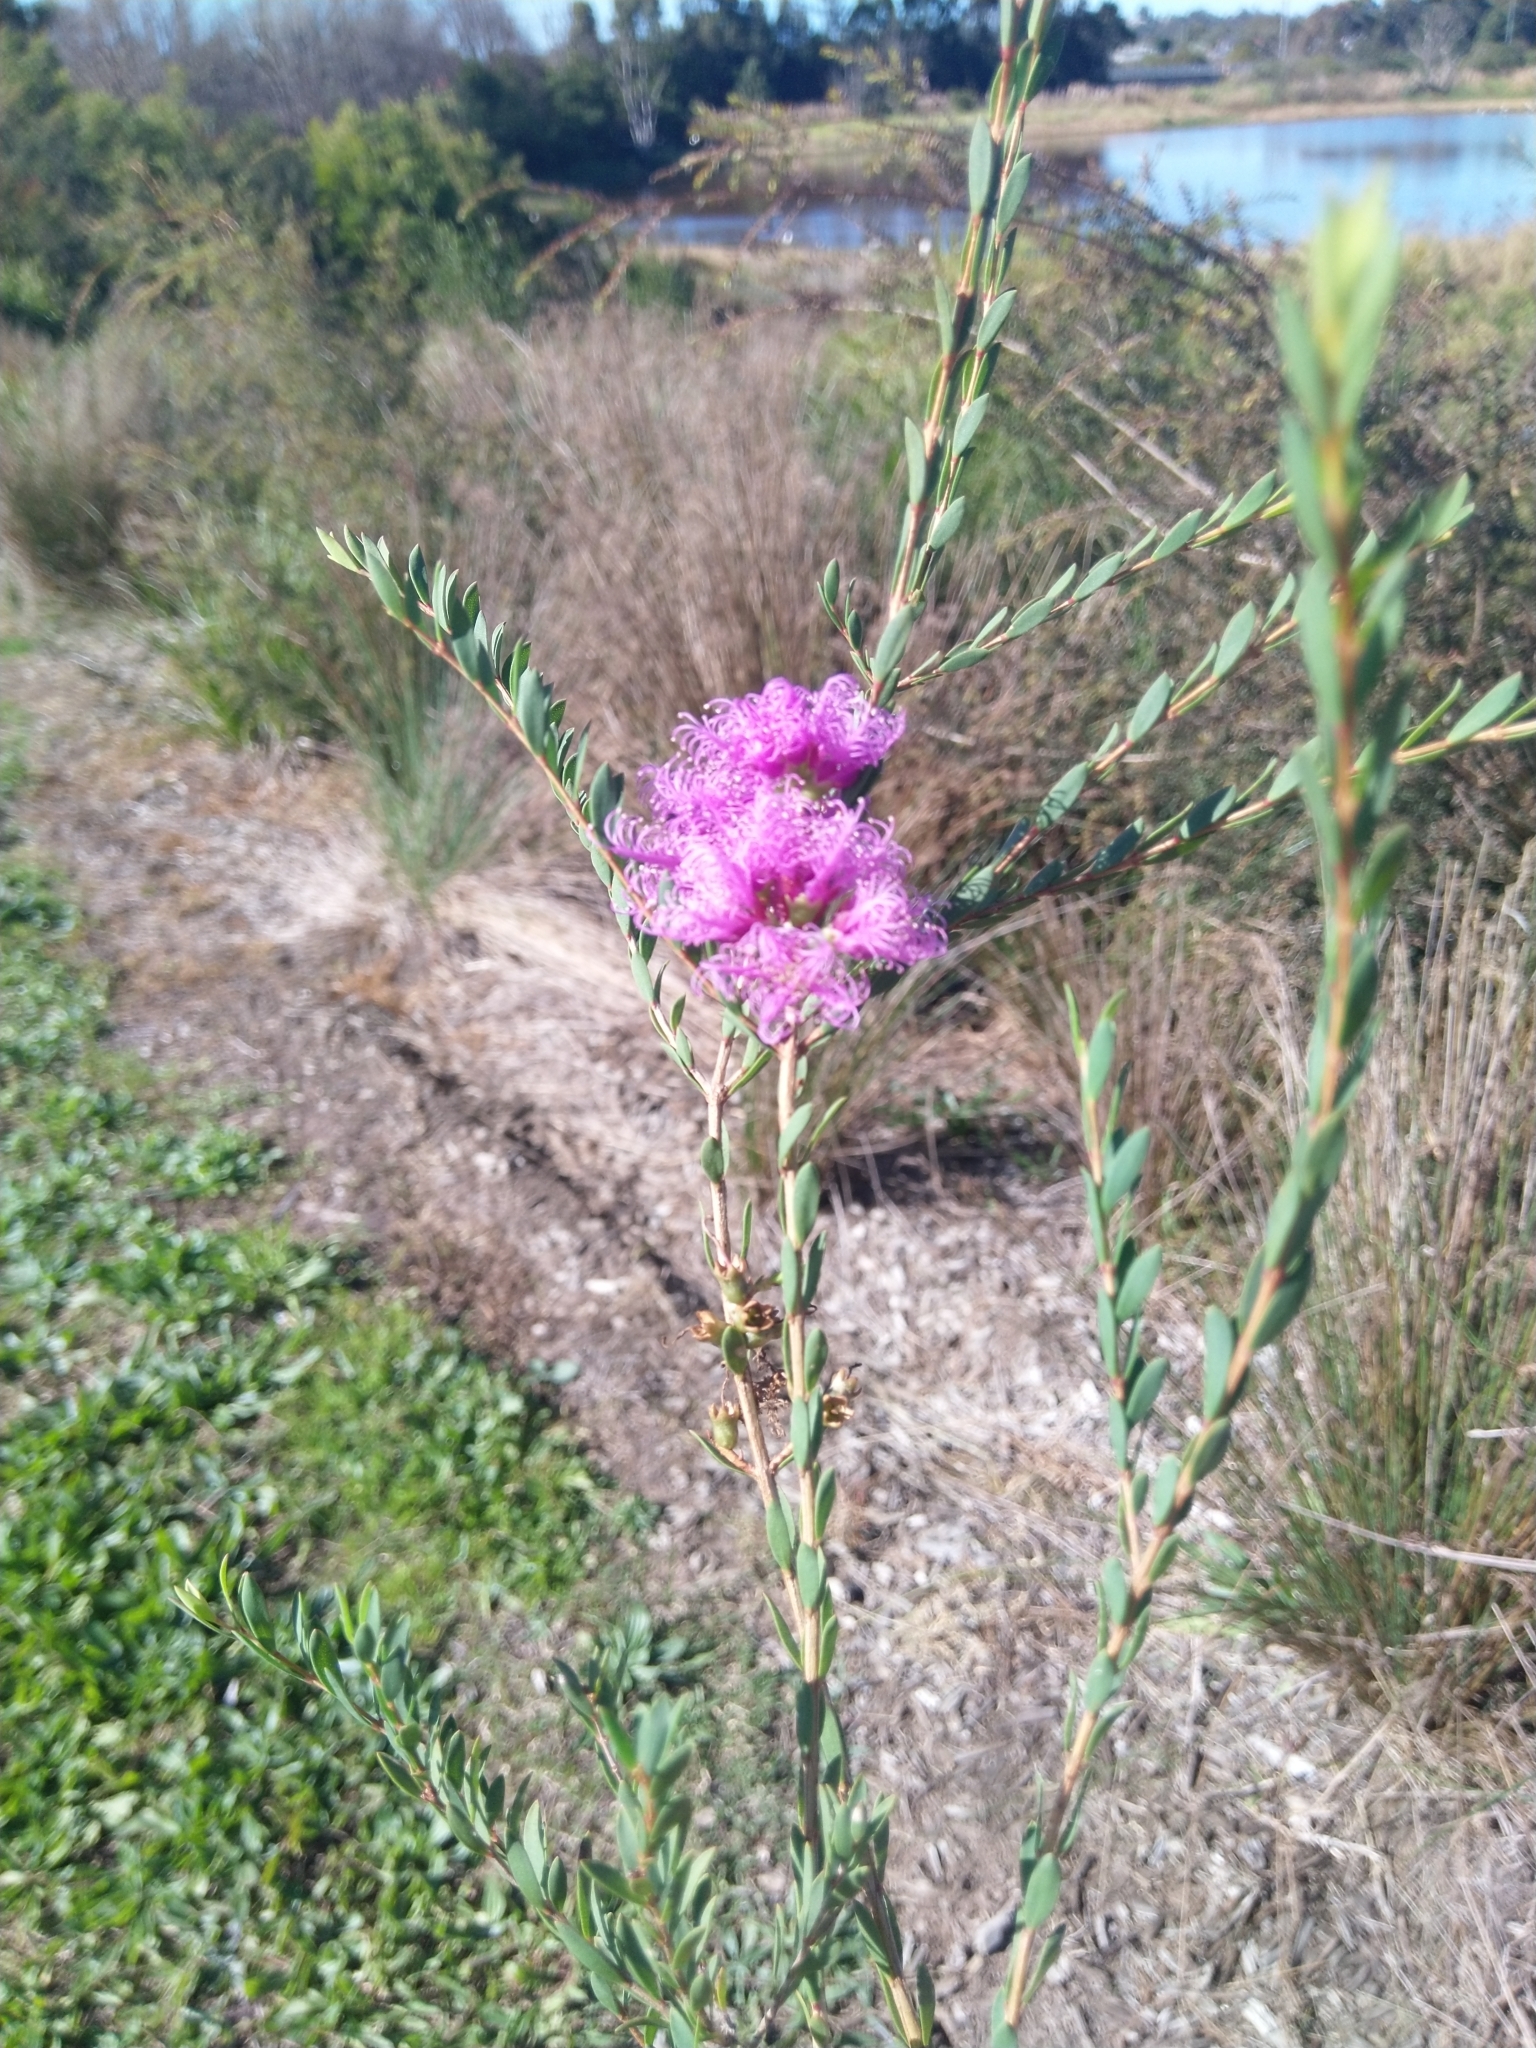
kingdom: Plantae
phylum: Tracheophyta
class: Magnoliopsida
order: Myrtales
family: Myrtaceae
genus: Melaleuca
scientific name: Melaleuca thymifolia
